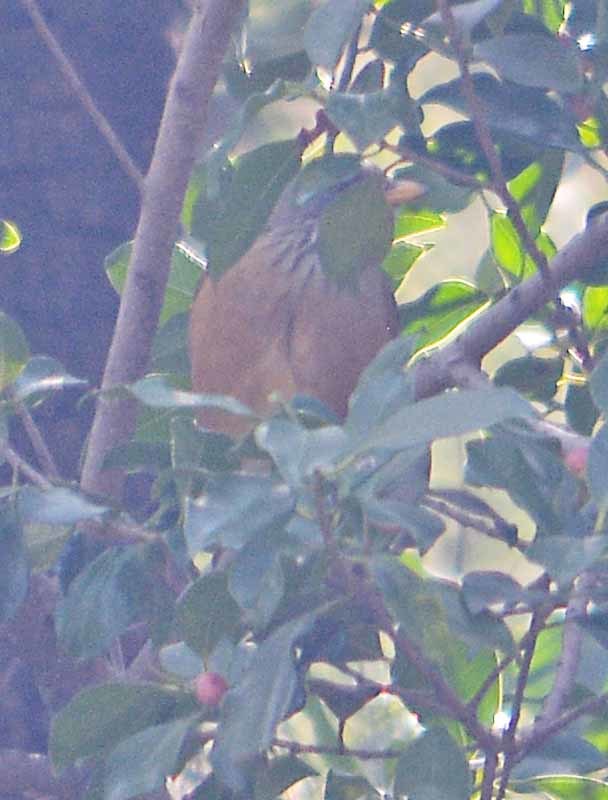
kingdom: Animalia
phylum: Chordata
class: Aves
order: Passeriformes
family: Turdidae
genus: Turdus
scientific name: Turdus rufopalliatus
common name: Rufous-backed robin
